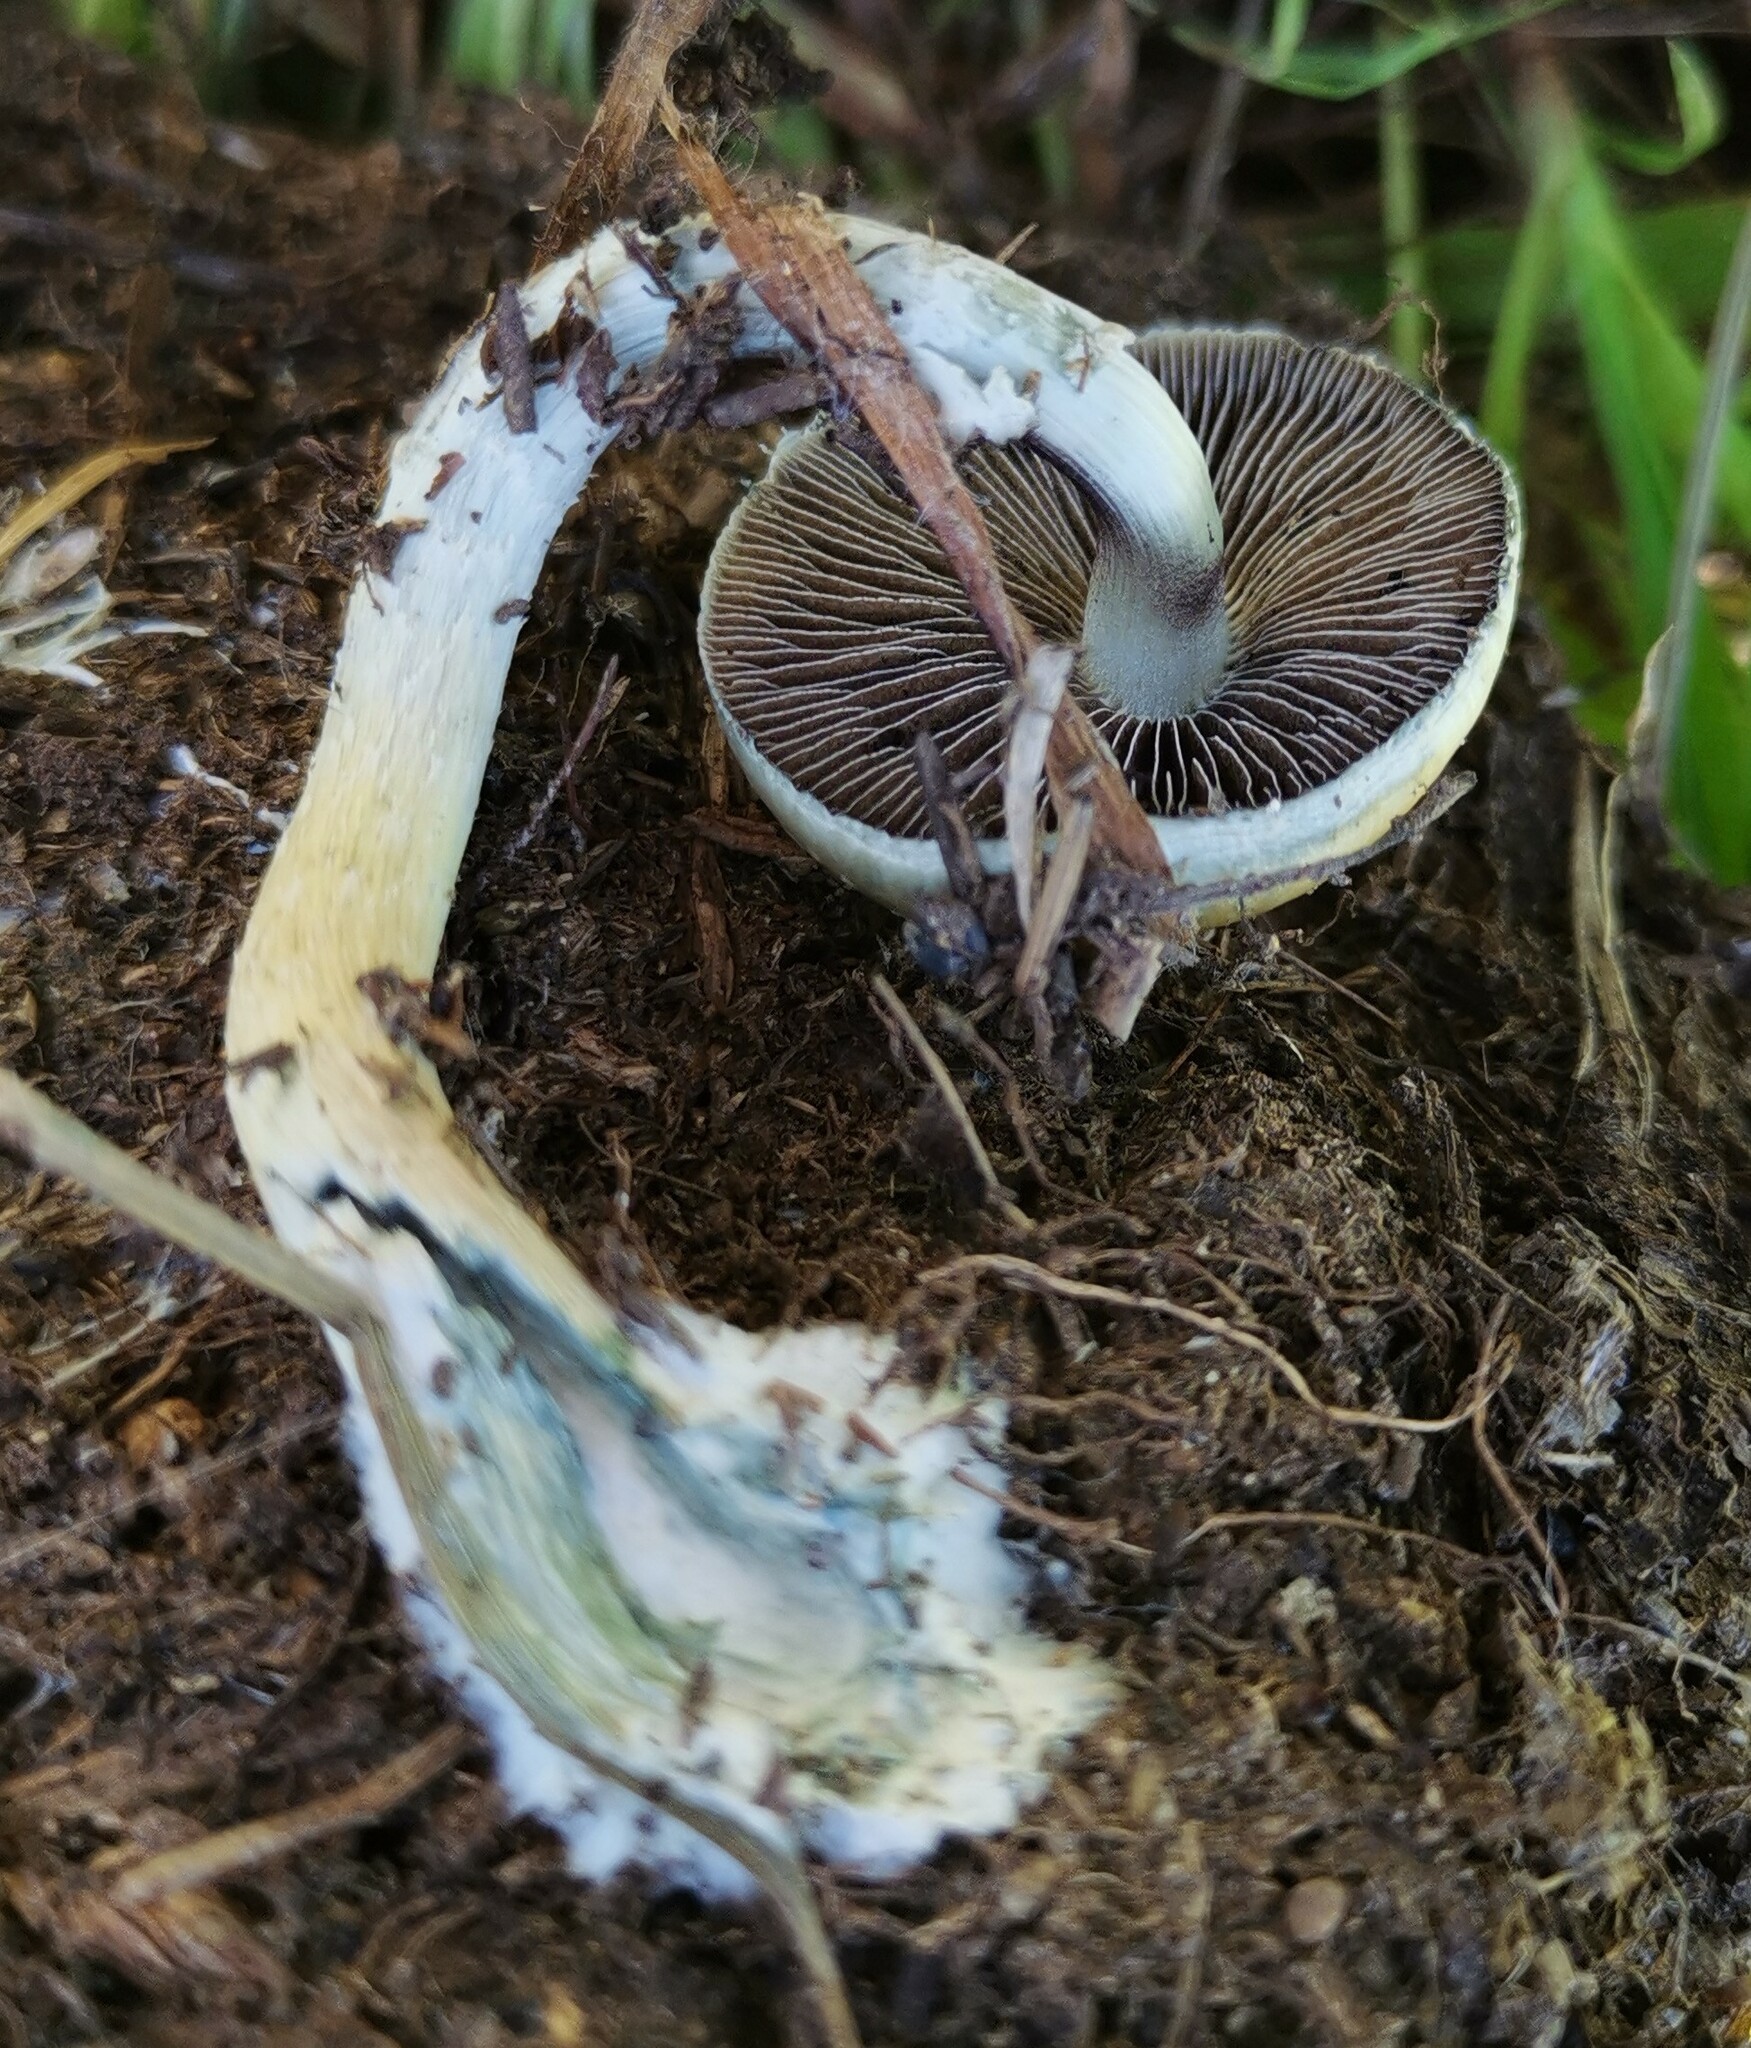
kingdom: Fungi
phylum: Basidiomycota
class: Agaricomycetes
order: Agaricales
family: Hymenogastraceae
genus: Psilocybe
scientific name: Psilocybe cubensis
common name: Golden brownie
